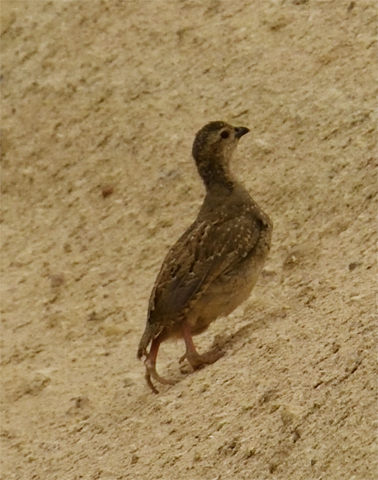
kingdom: Animalia
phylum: Chordata
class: Aves
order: Galliformes
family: Phasianidae
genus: Alectoris
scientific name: Alectoris chukar
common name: Chukar
